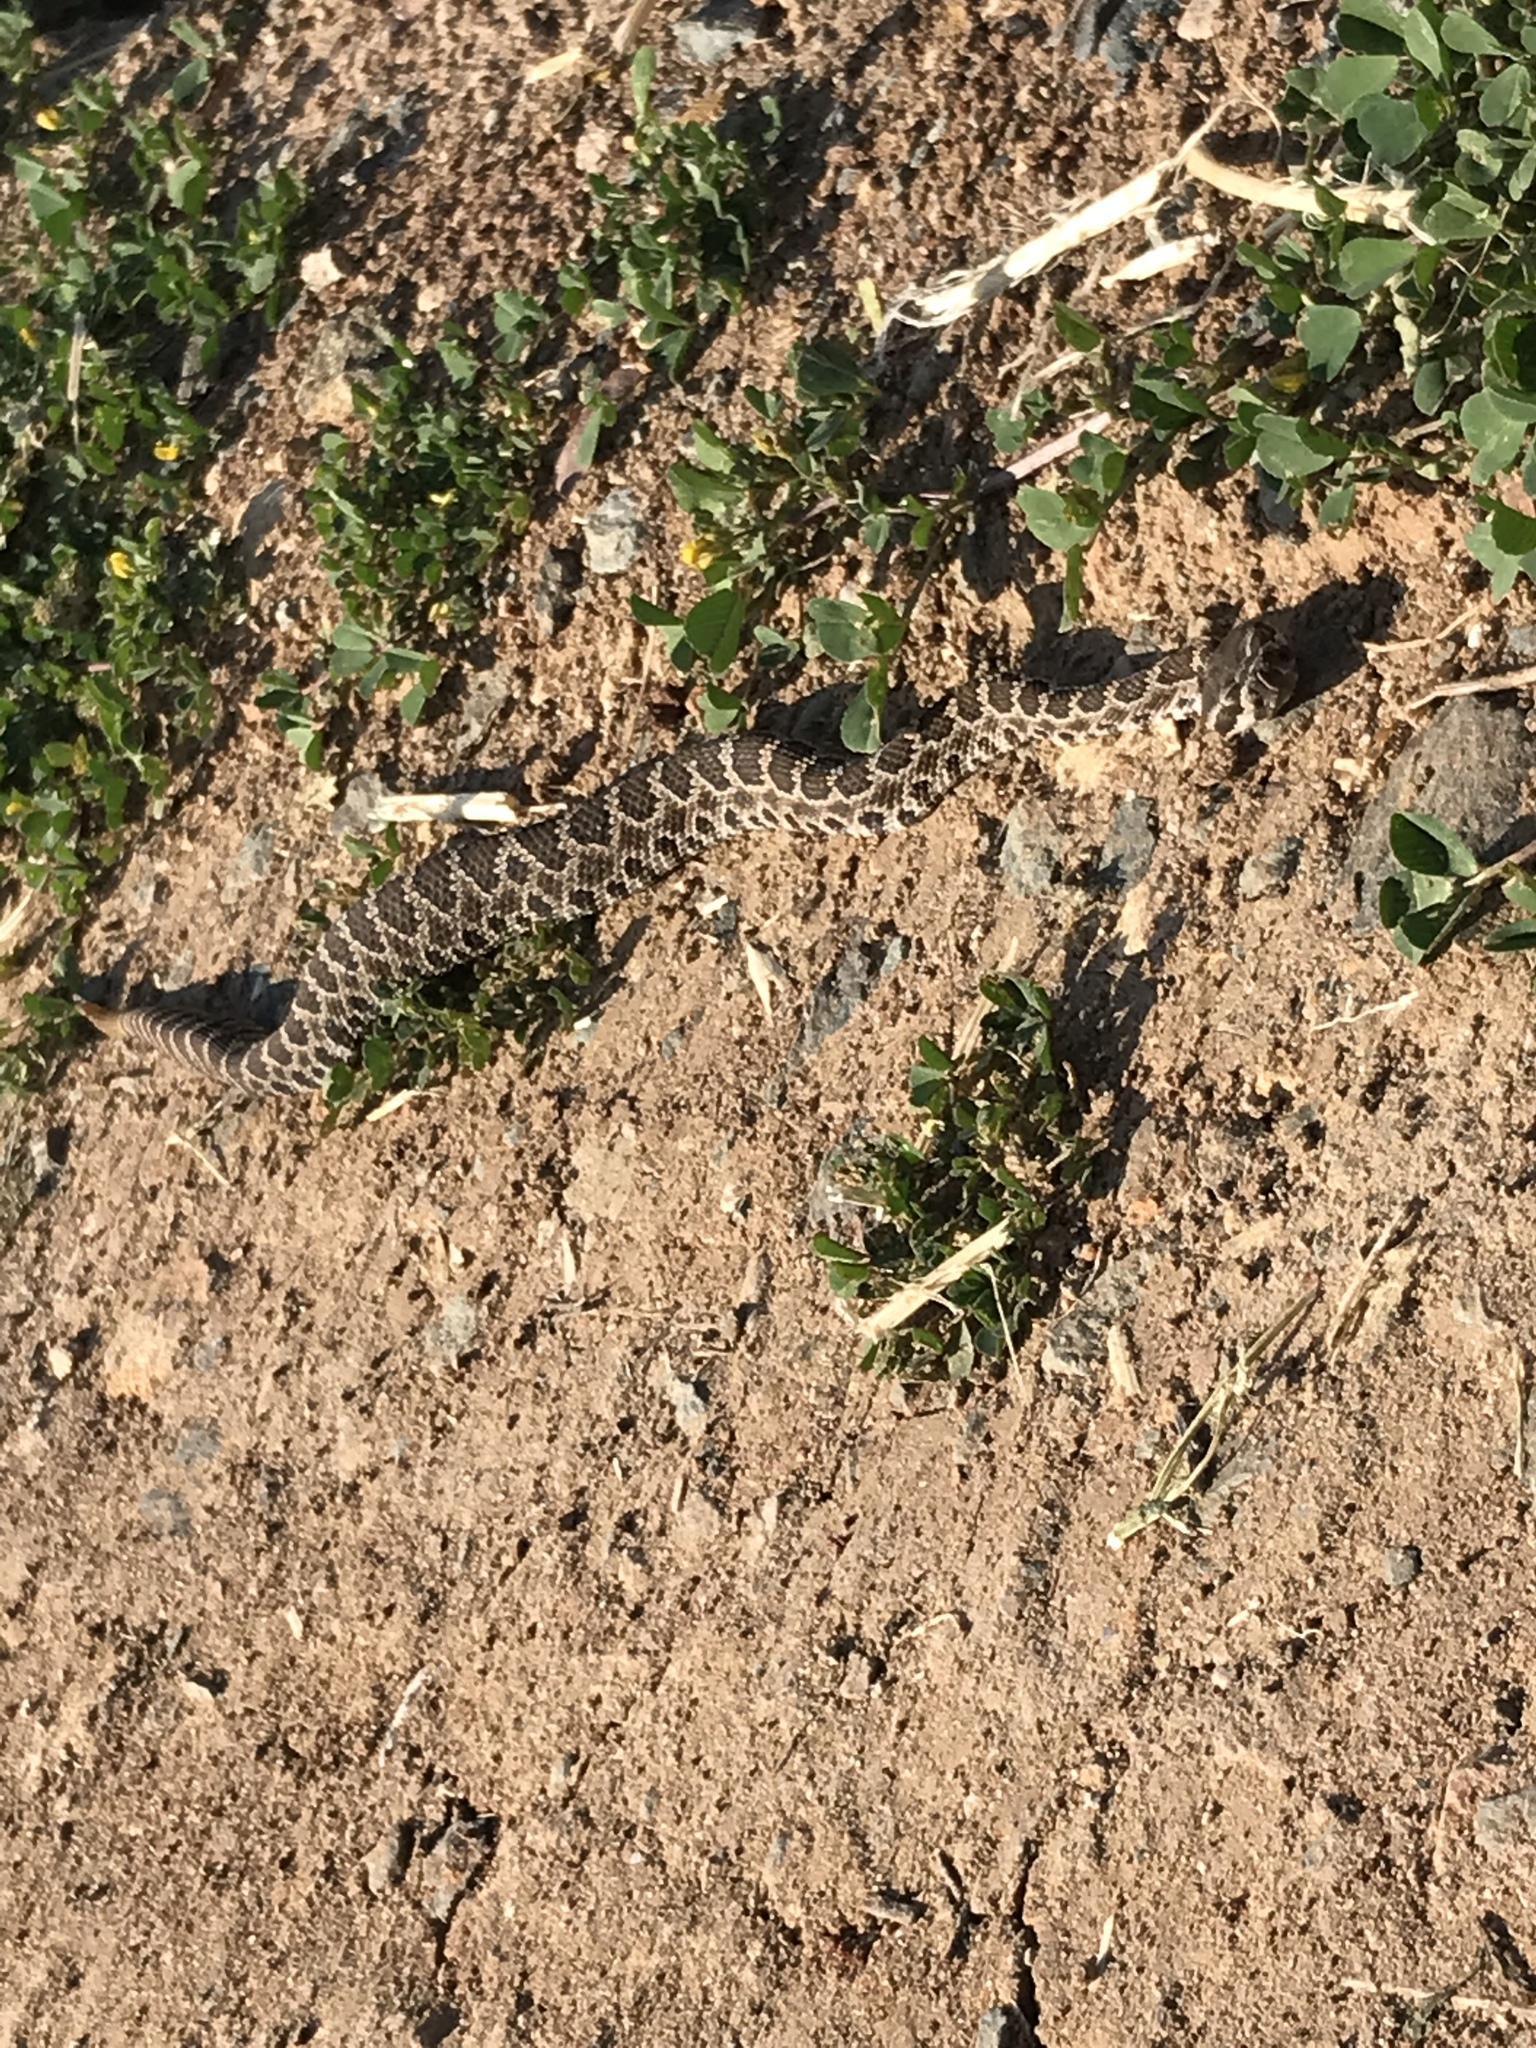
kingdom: Animalia
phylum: Chordata
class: Squamata
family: Viperidae
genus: Crotalus
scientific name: Crotalus oreganus
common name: Abyssus
